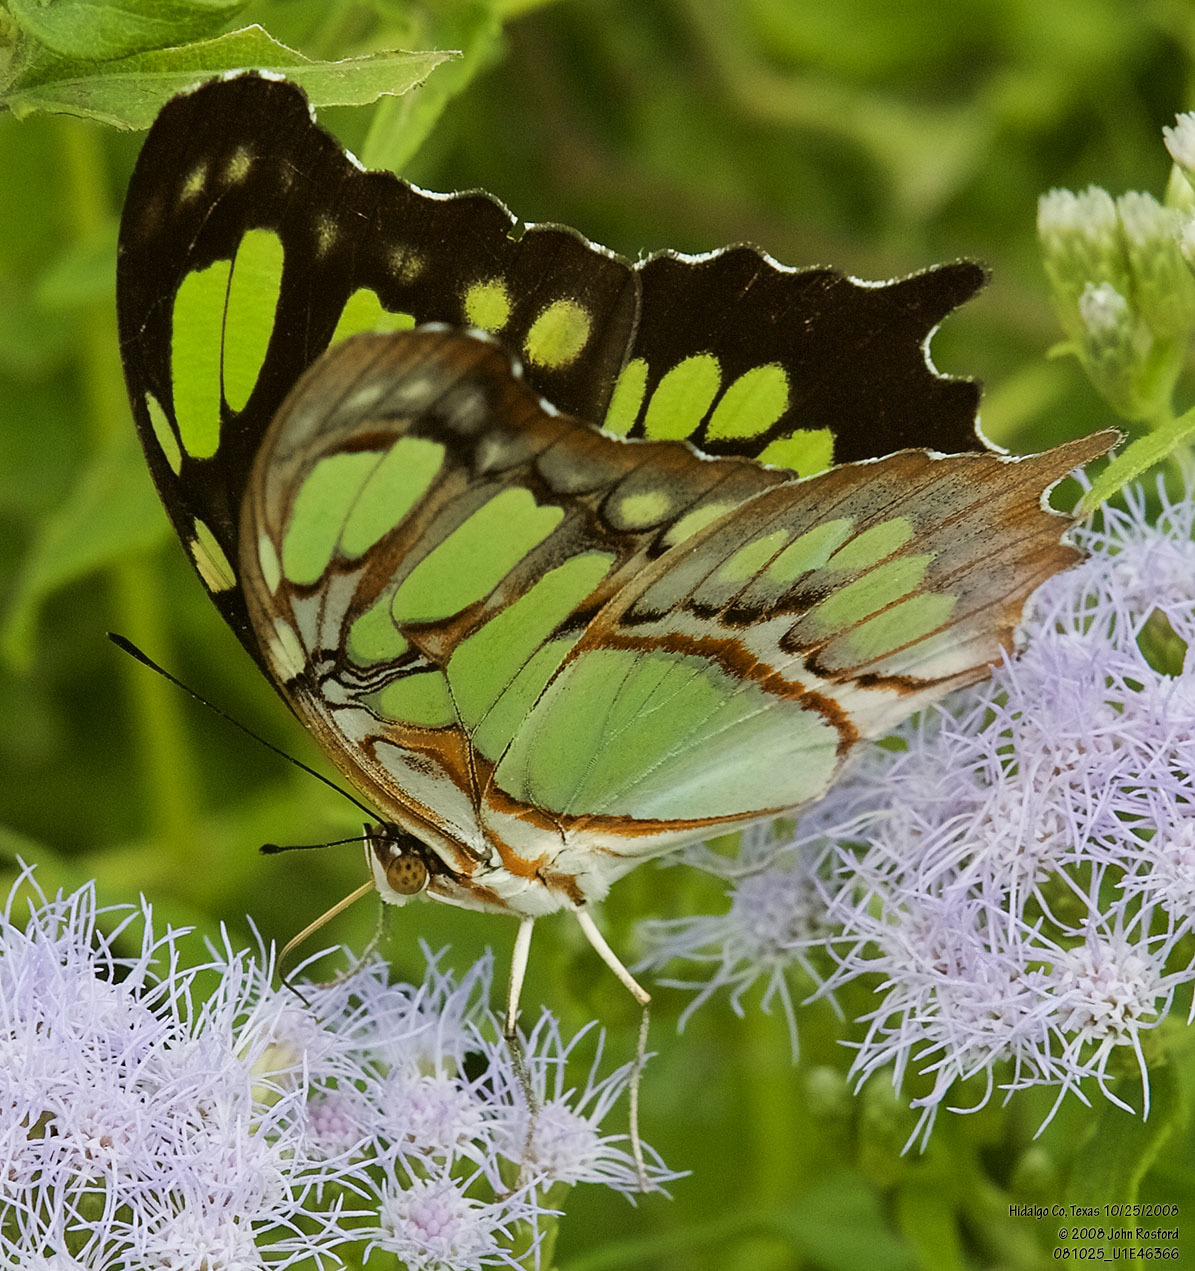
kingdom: Animalia
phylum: Arthropoda
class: Insecta
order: Lepidoptera
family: Nymphalidae
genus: Siproeta
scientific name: Siproeta stelenes
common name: Malachite
